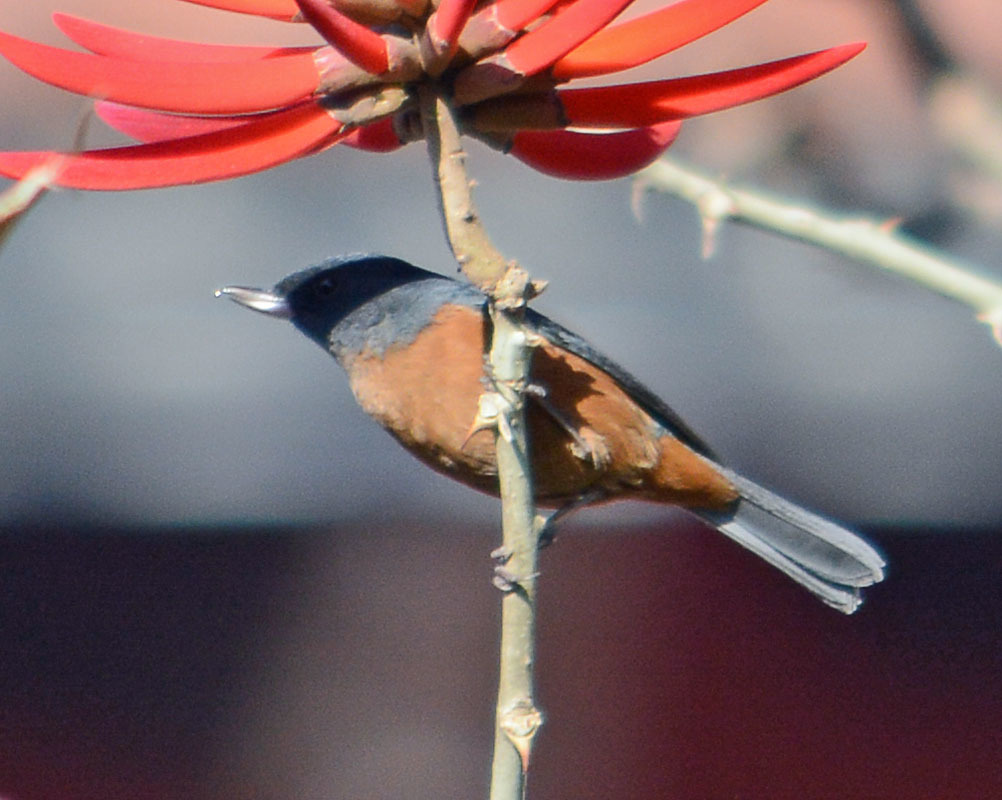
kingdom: Animalia
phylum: Chordata
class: Aves
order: Passeriformes
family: Thraupidae
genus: Diglossa
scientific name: Diglossa baritula
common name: Cinnamon-bellied flowerpiercer
